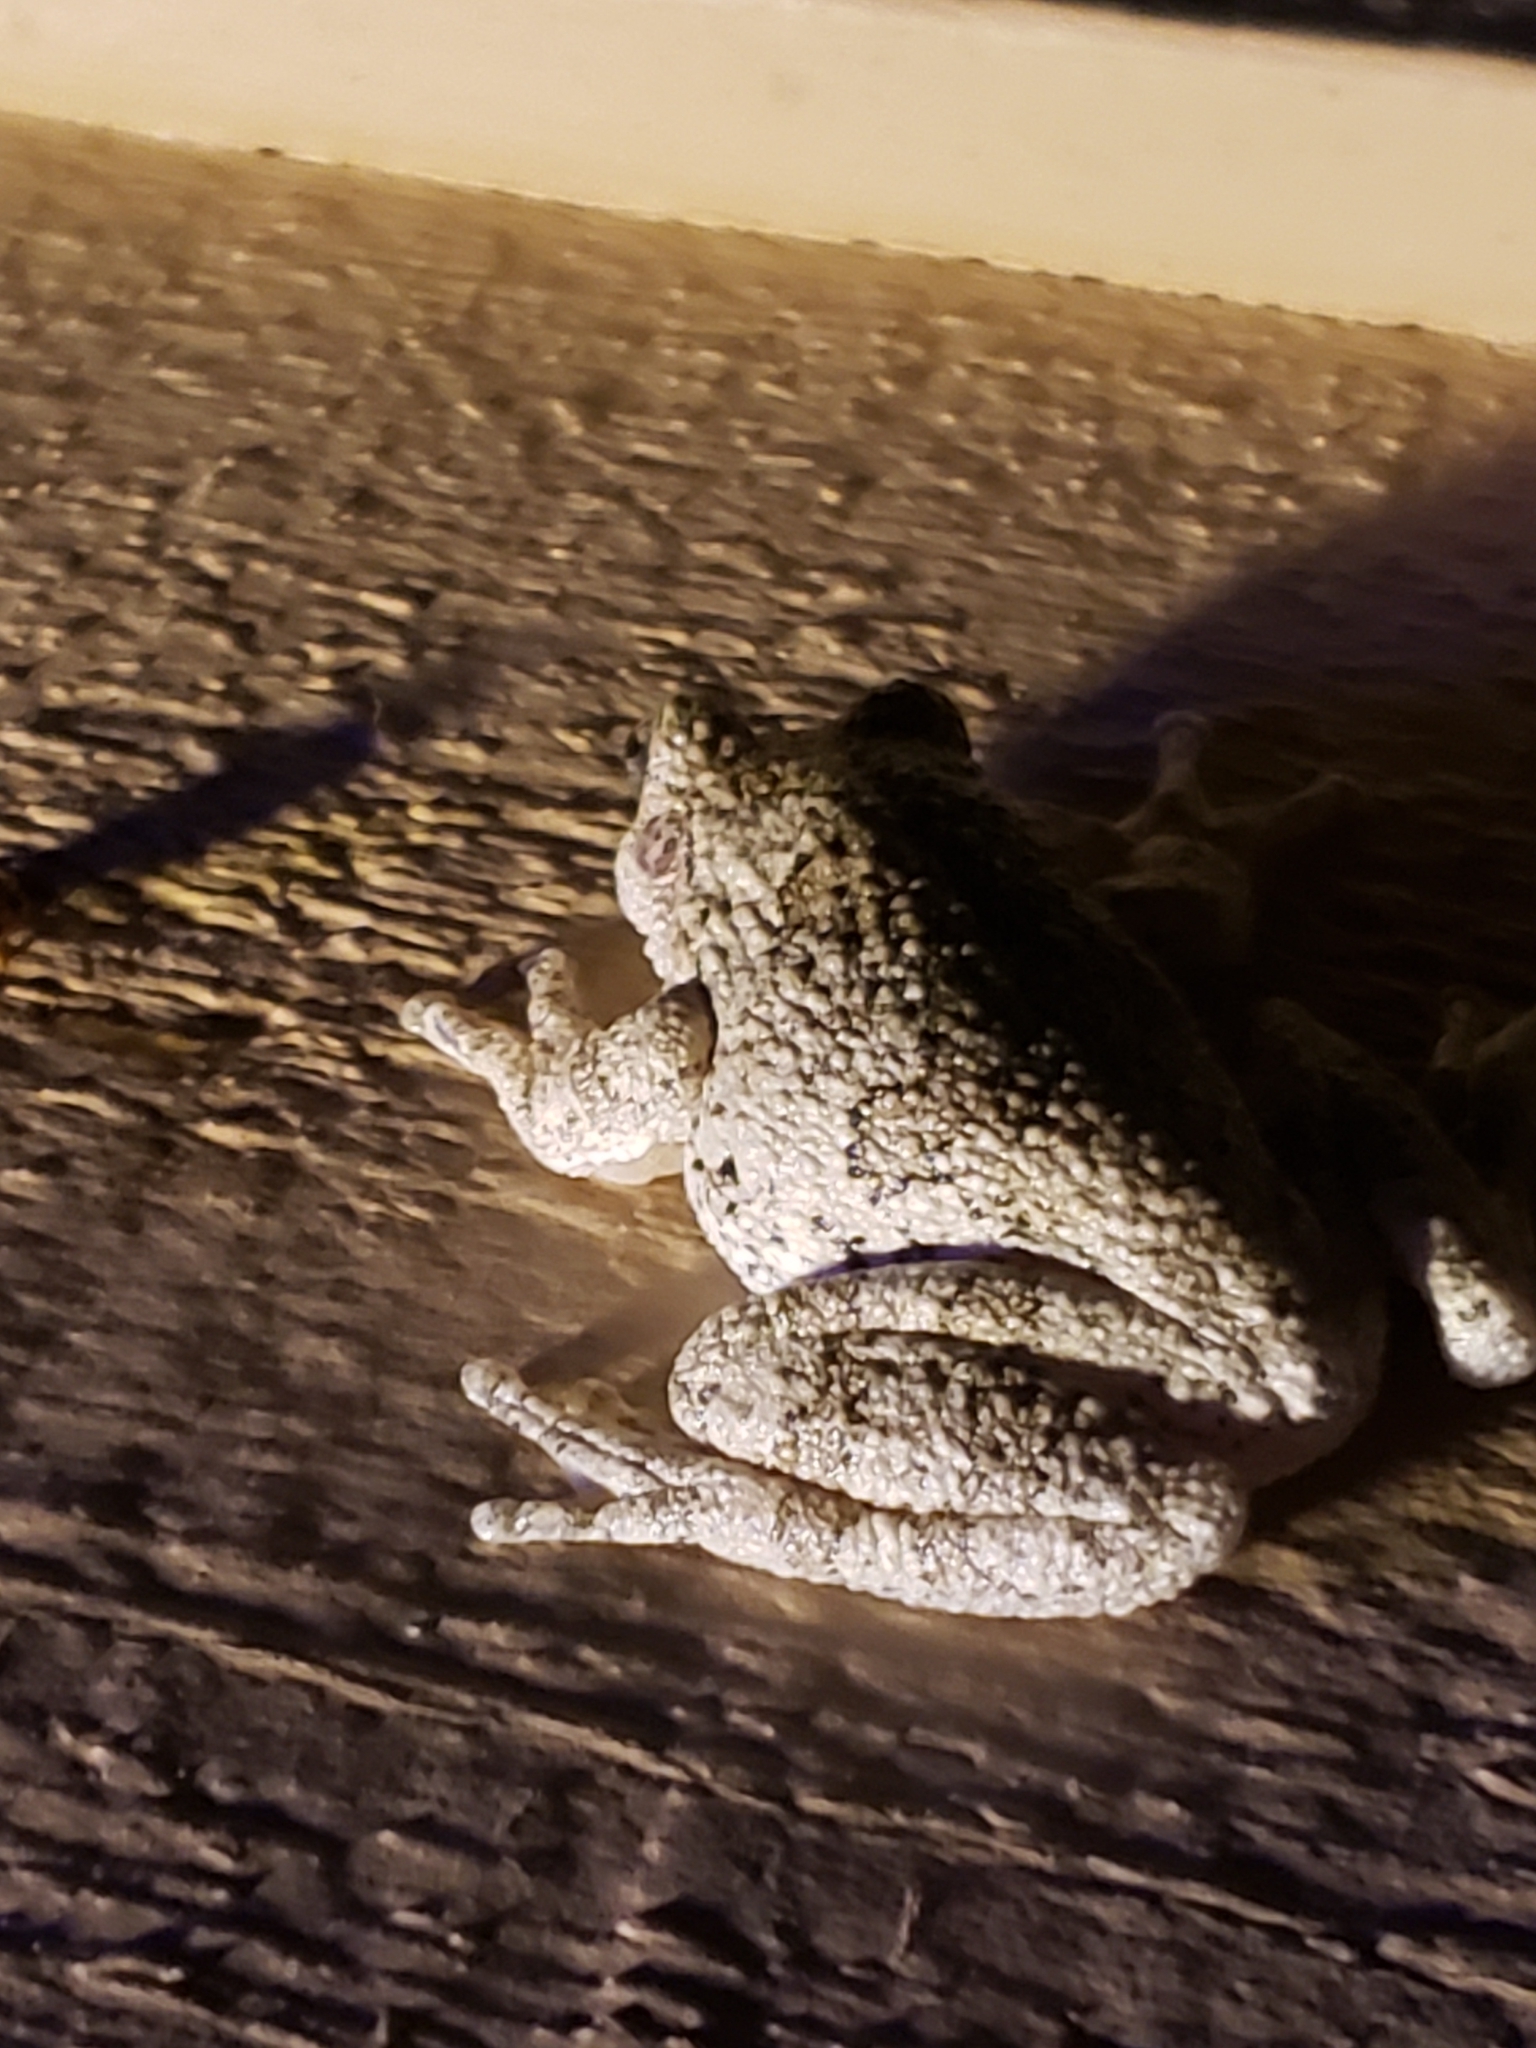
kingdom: Animalia
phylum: Chordata
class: Amphibia
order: Anura
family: Hylidae
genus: Hyla
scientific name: Hyla
